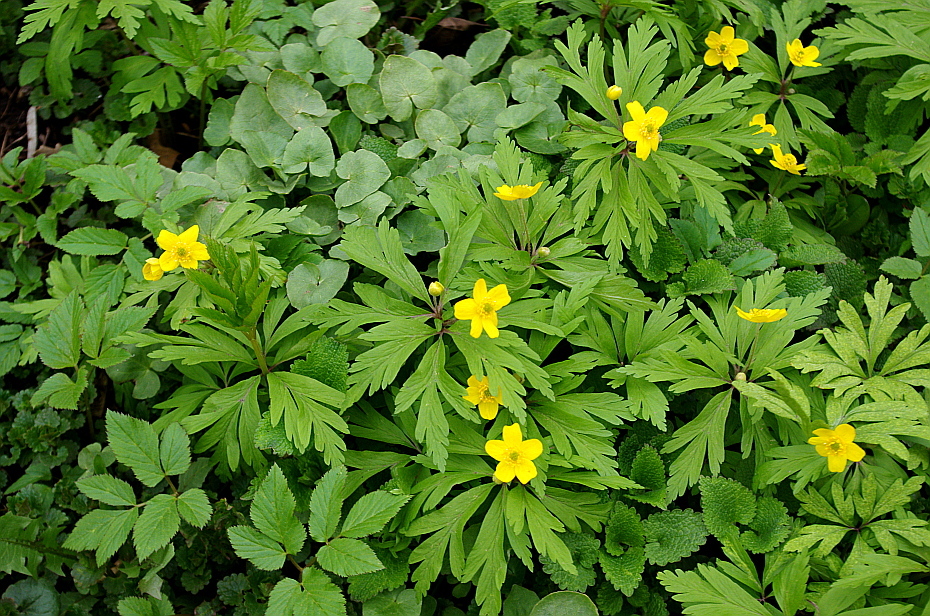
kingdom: Plantae
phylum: Tracheophyta
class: Magnoliopsida
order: Ranunculales
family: Ranunculaceae
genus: Anemone
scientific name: Anemone ranunculoides
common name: Yellow anemone
